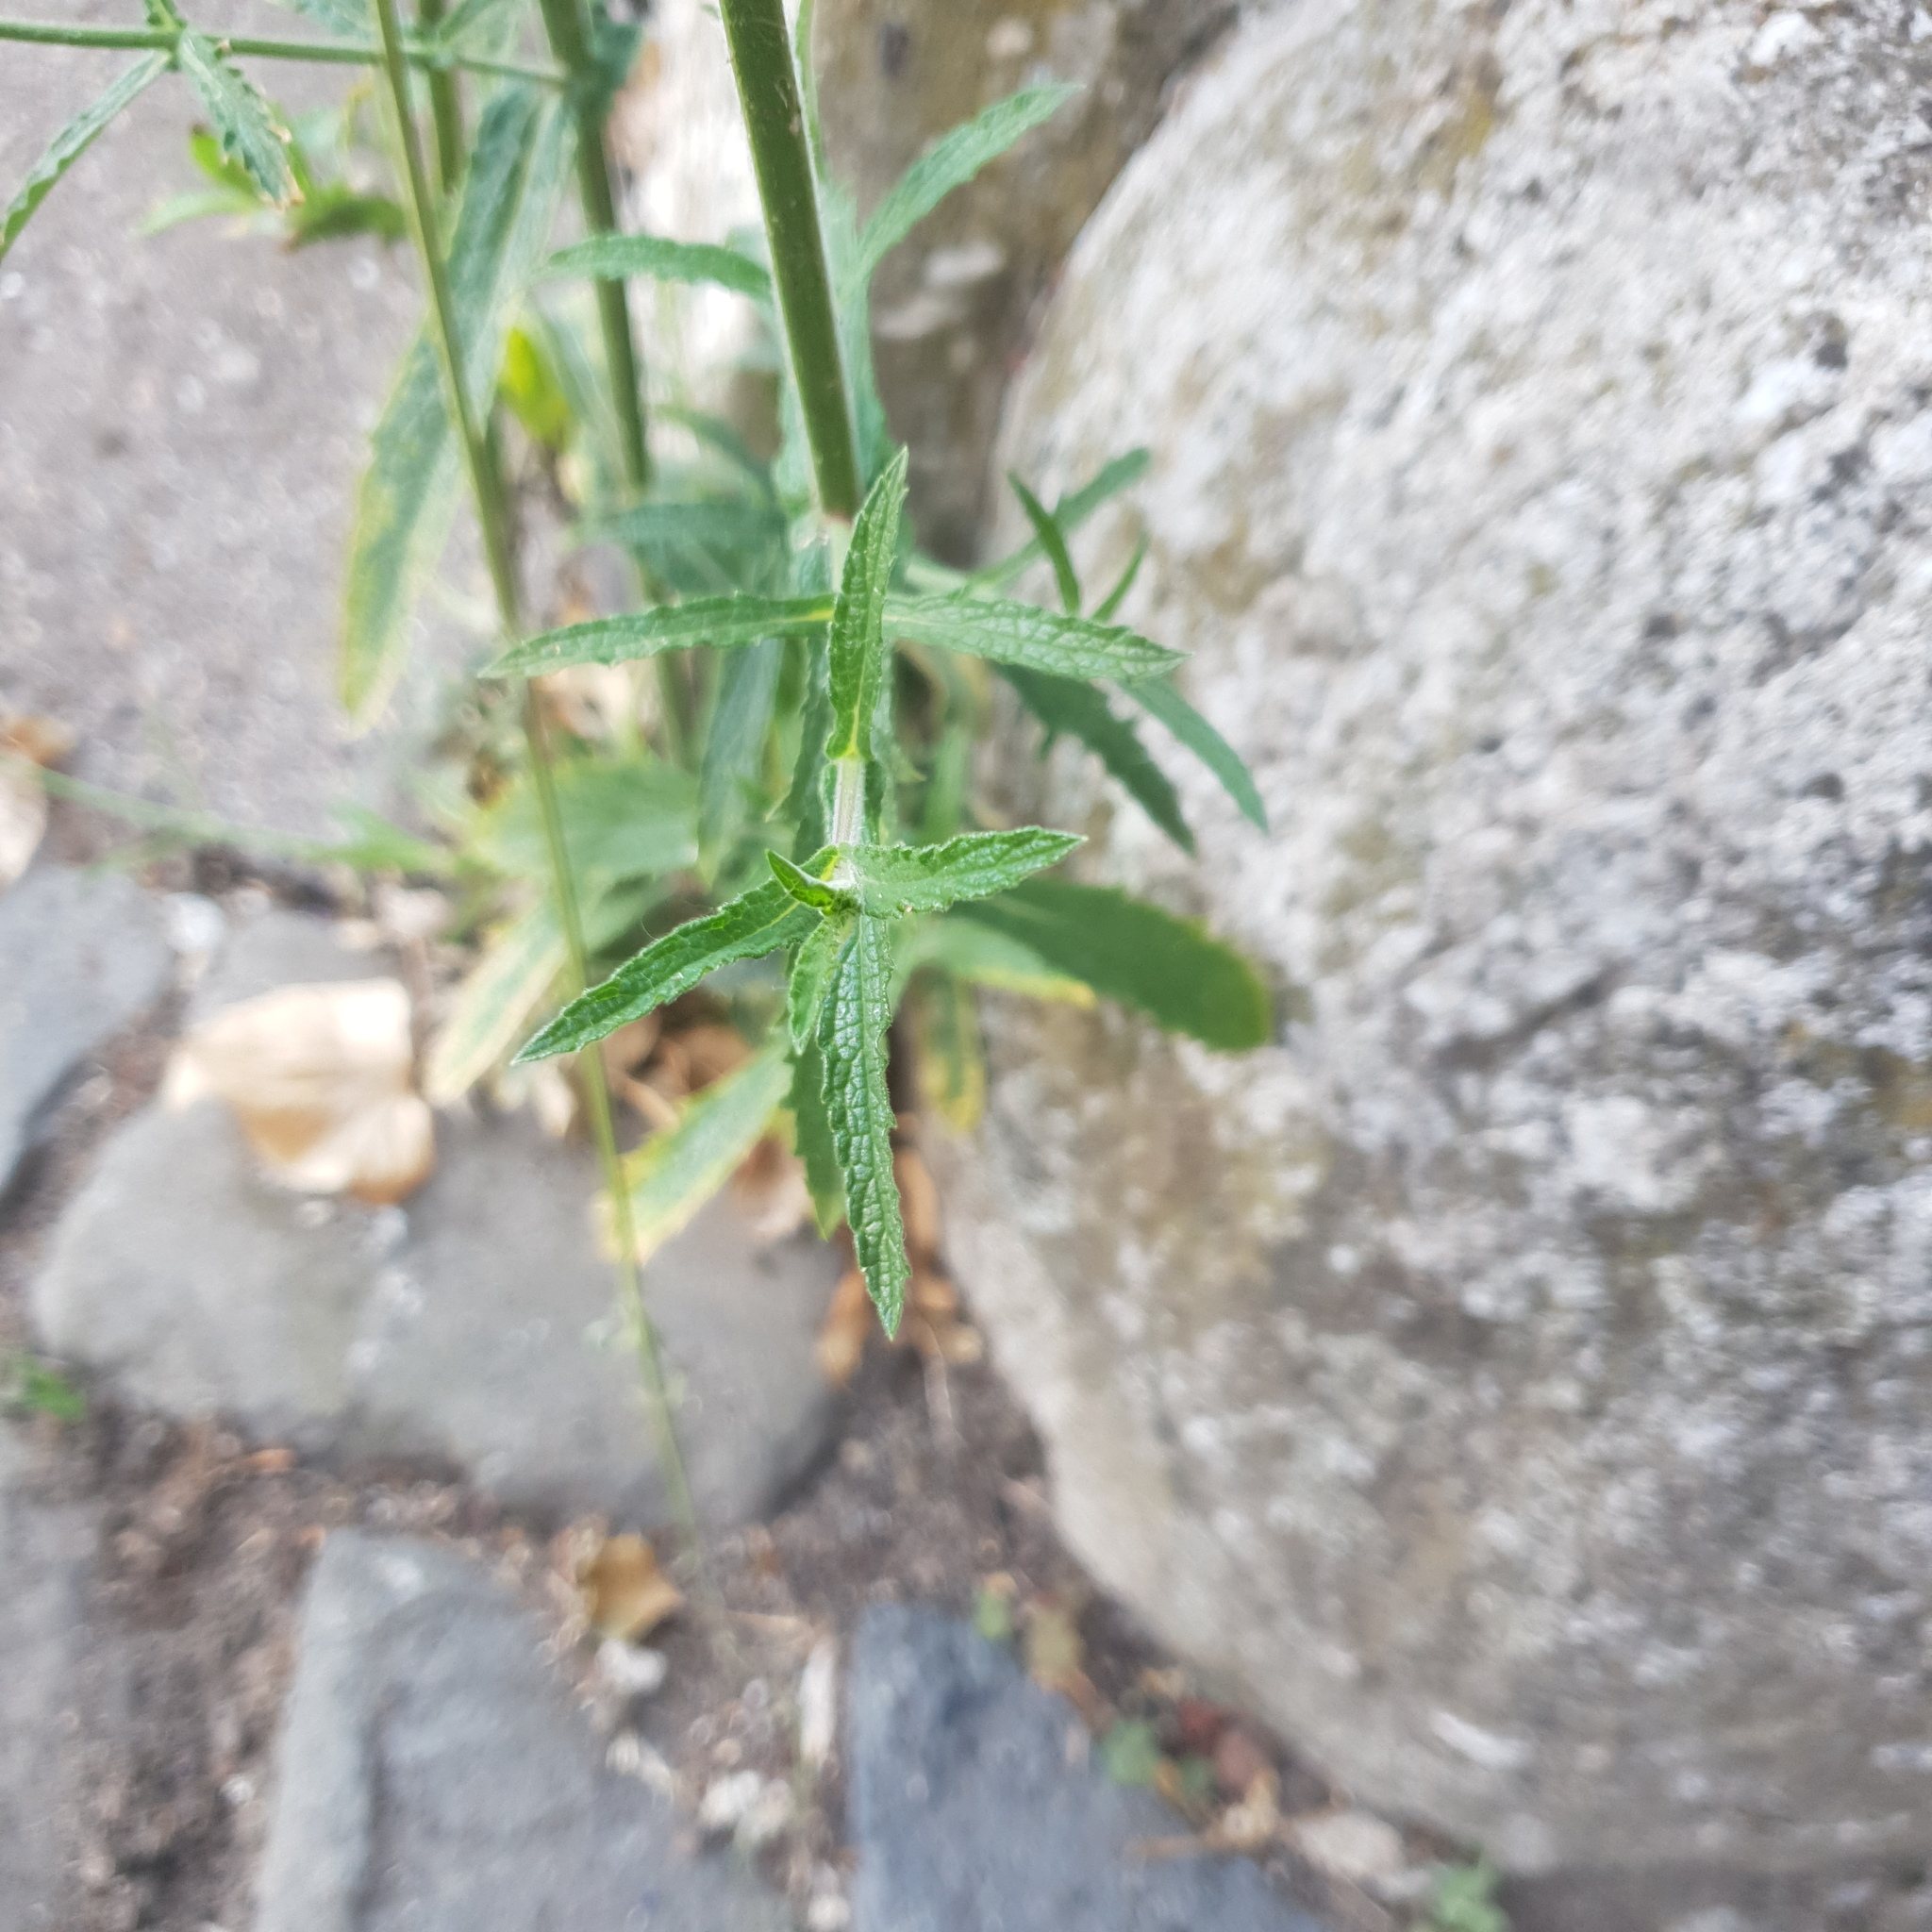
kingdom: Plantae
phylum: Tracheophyta
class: Magnoliopsida
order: Lamiales
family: Verbenaceae
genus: Verbena
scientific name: Verbena bonariensis
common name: Purpletop vervain
